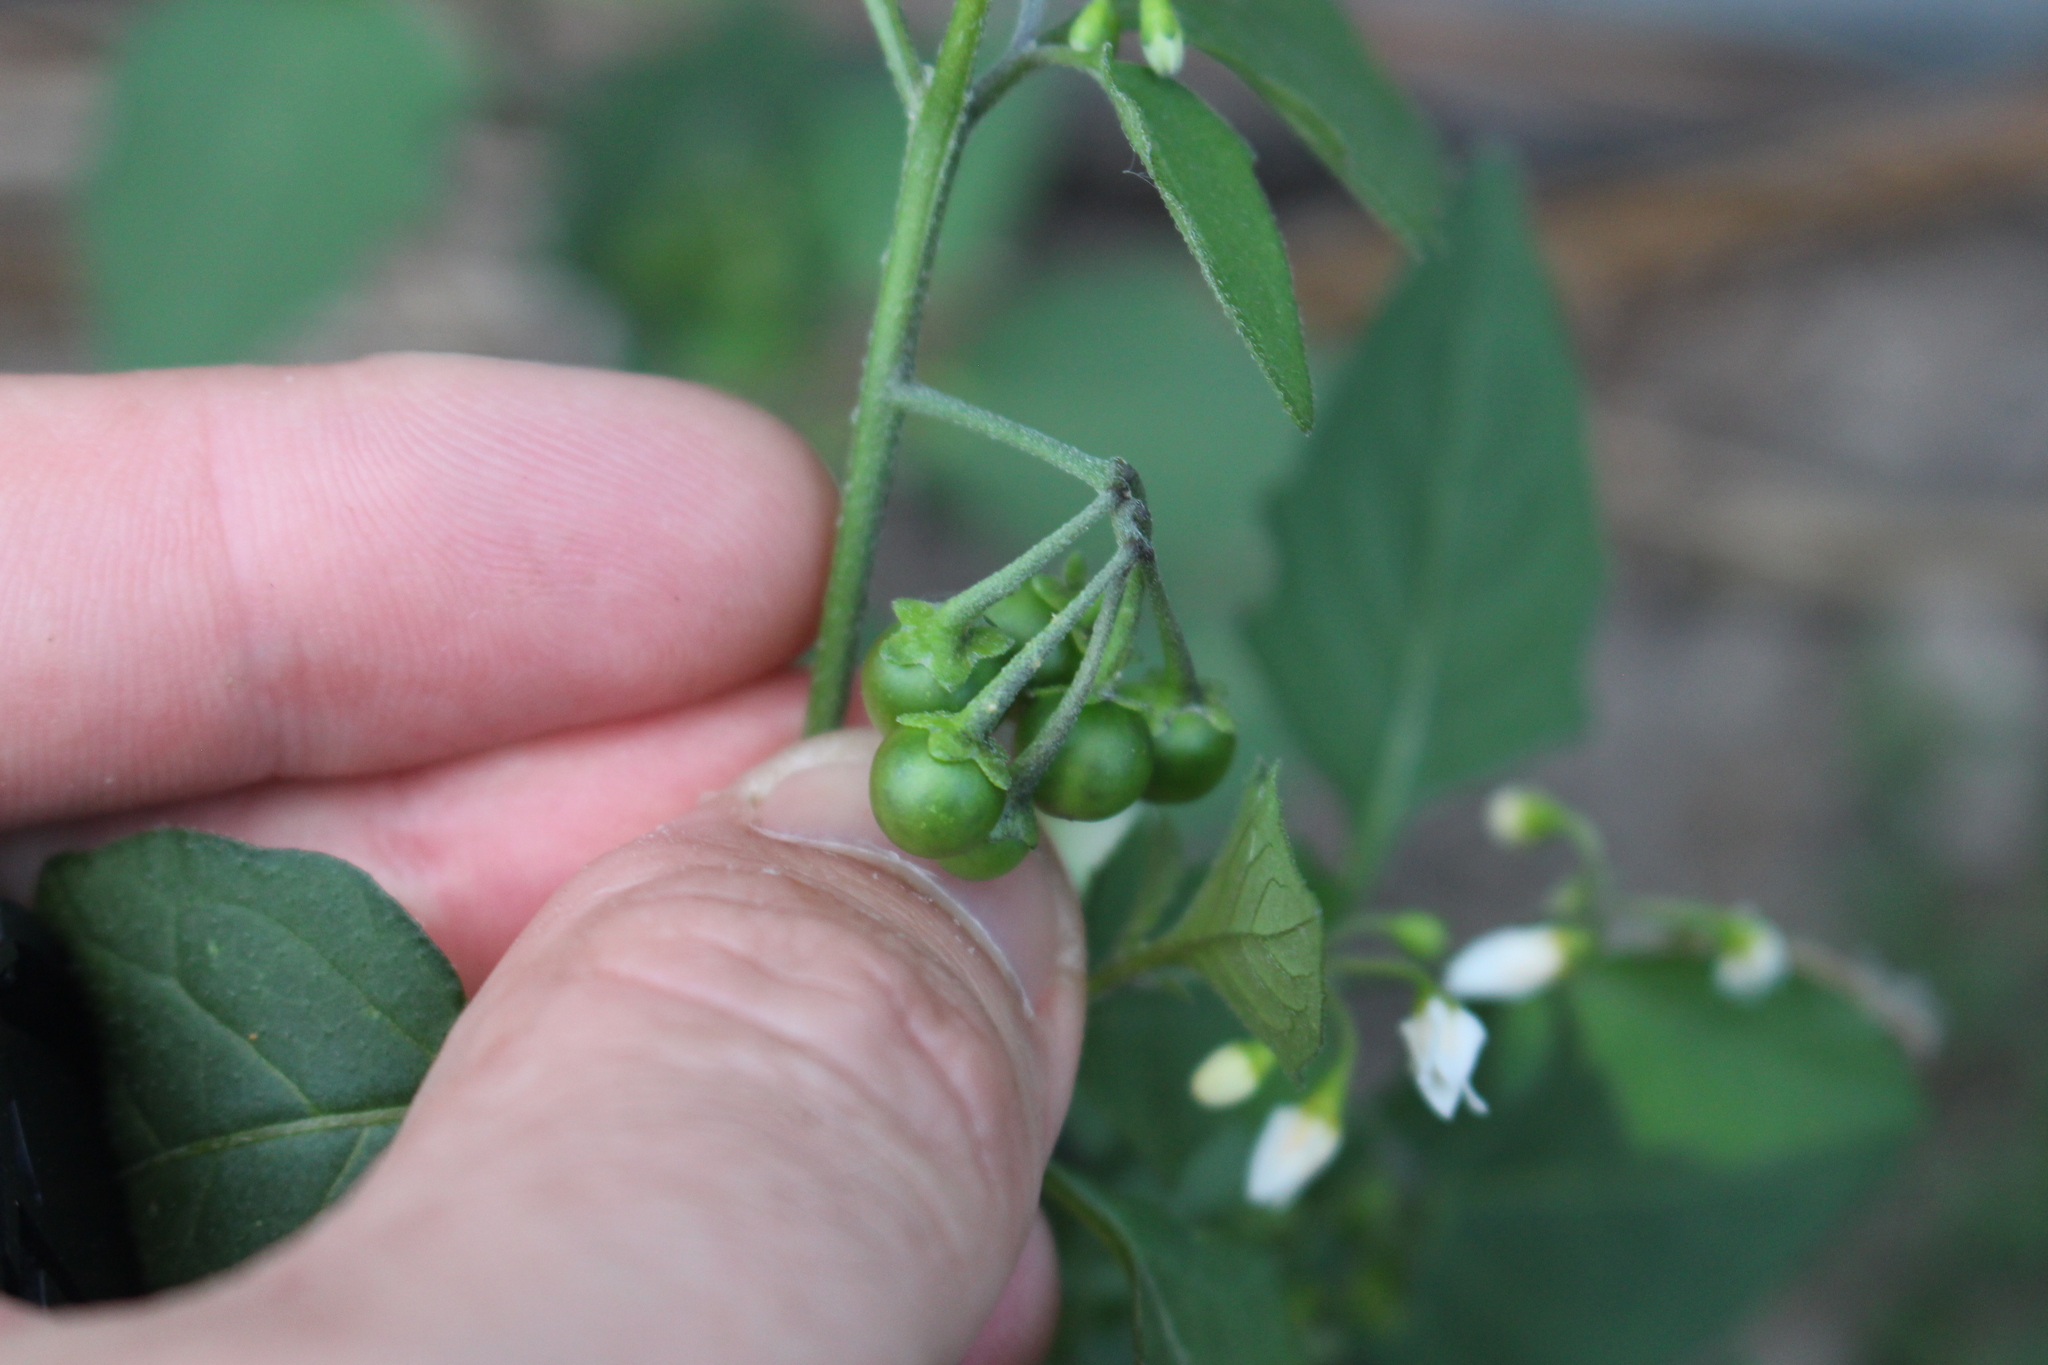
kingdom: Plantae
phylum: Tracheophyta
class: Magnoliopsida
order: Solanales
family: Solanaceae
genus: Solanum
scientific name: Solanum nigrum
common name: Black nightshade
